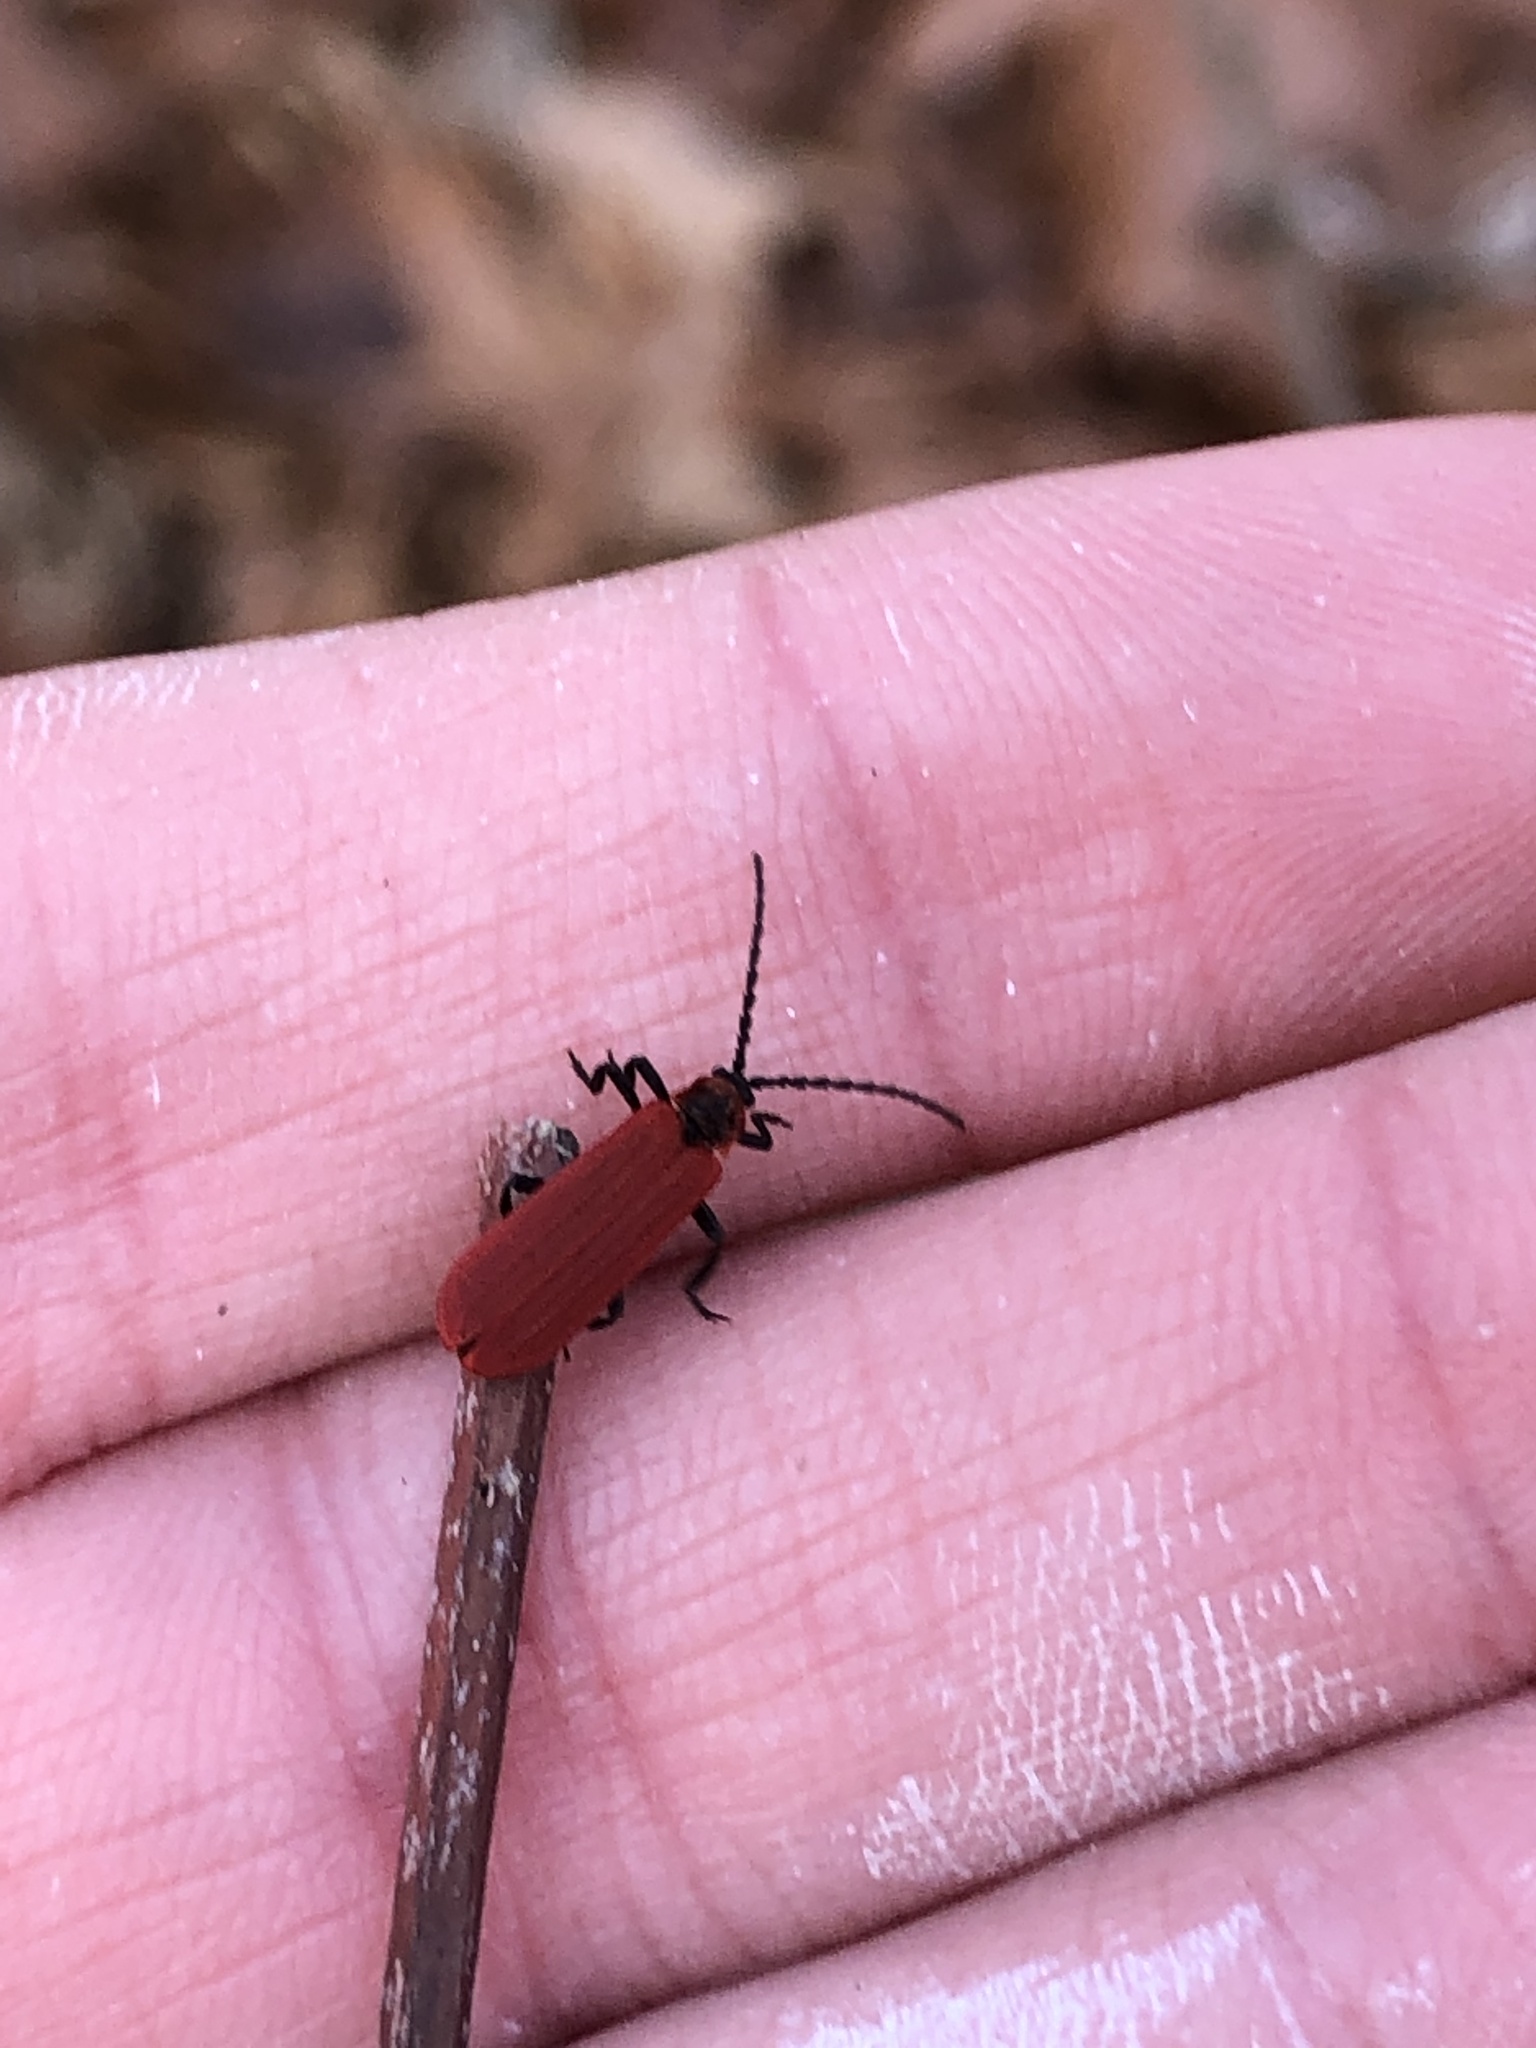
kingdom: Animalia
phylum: Arthropoda
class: Insecta
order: Coleoptera
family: Lycidae
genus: Dictyoptera
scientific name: Dictyoptera aurora
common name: Golden net-winged beetle
